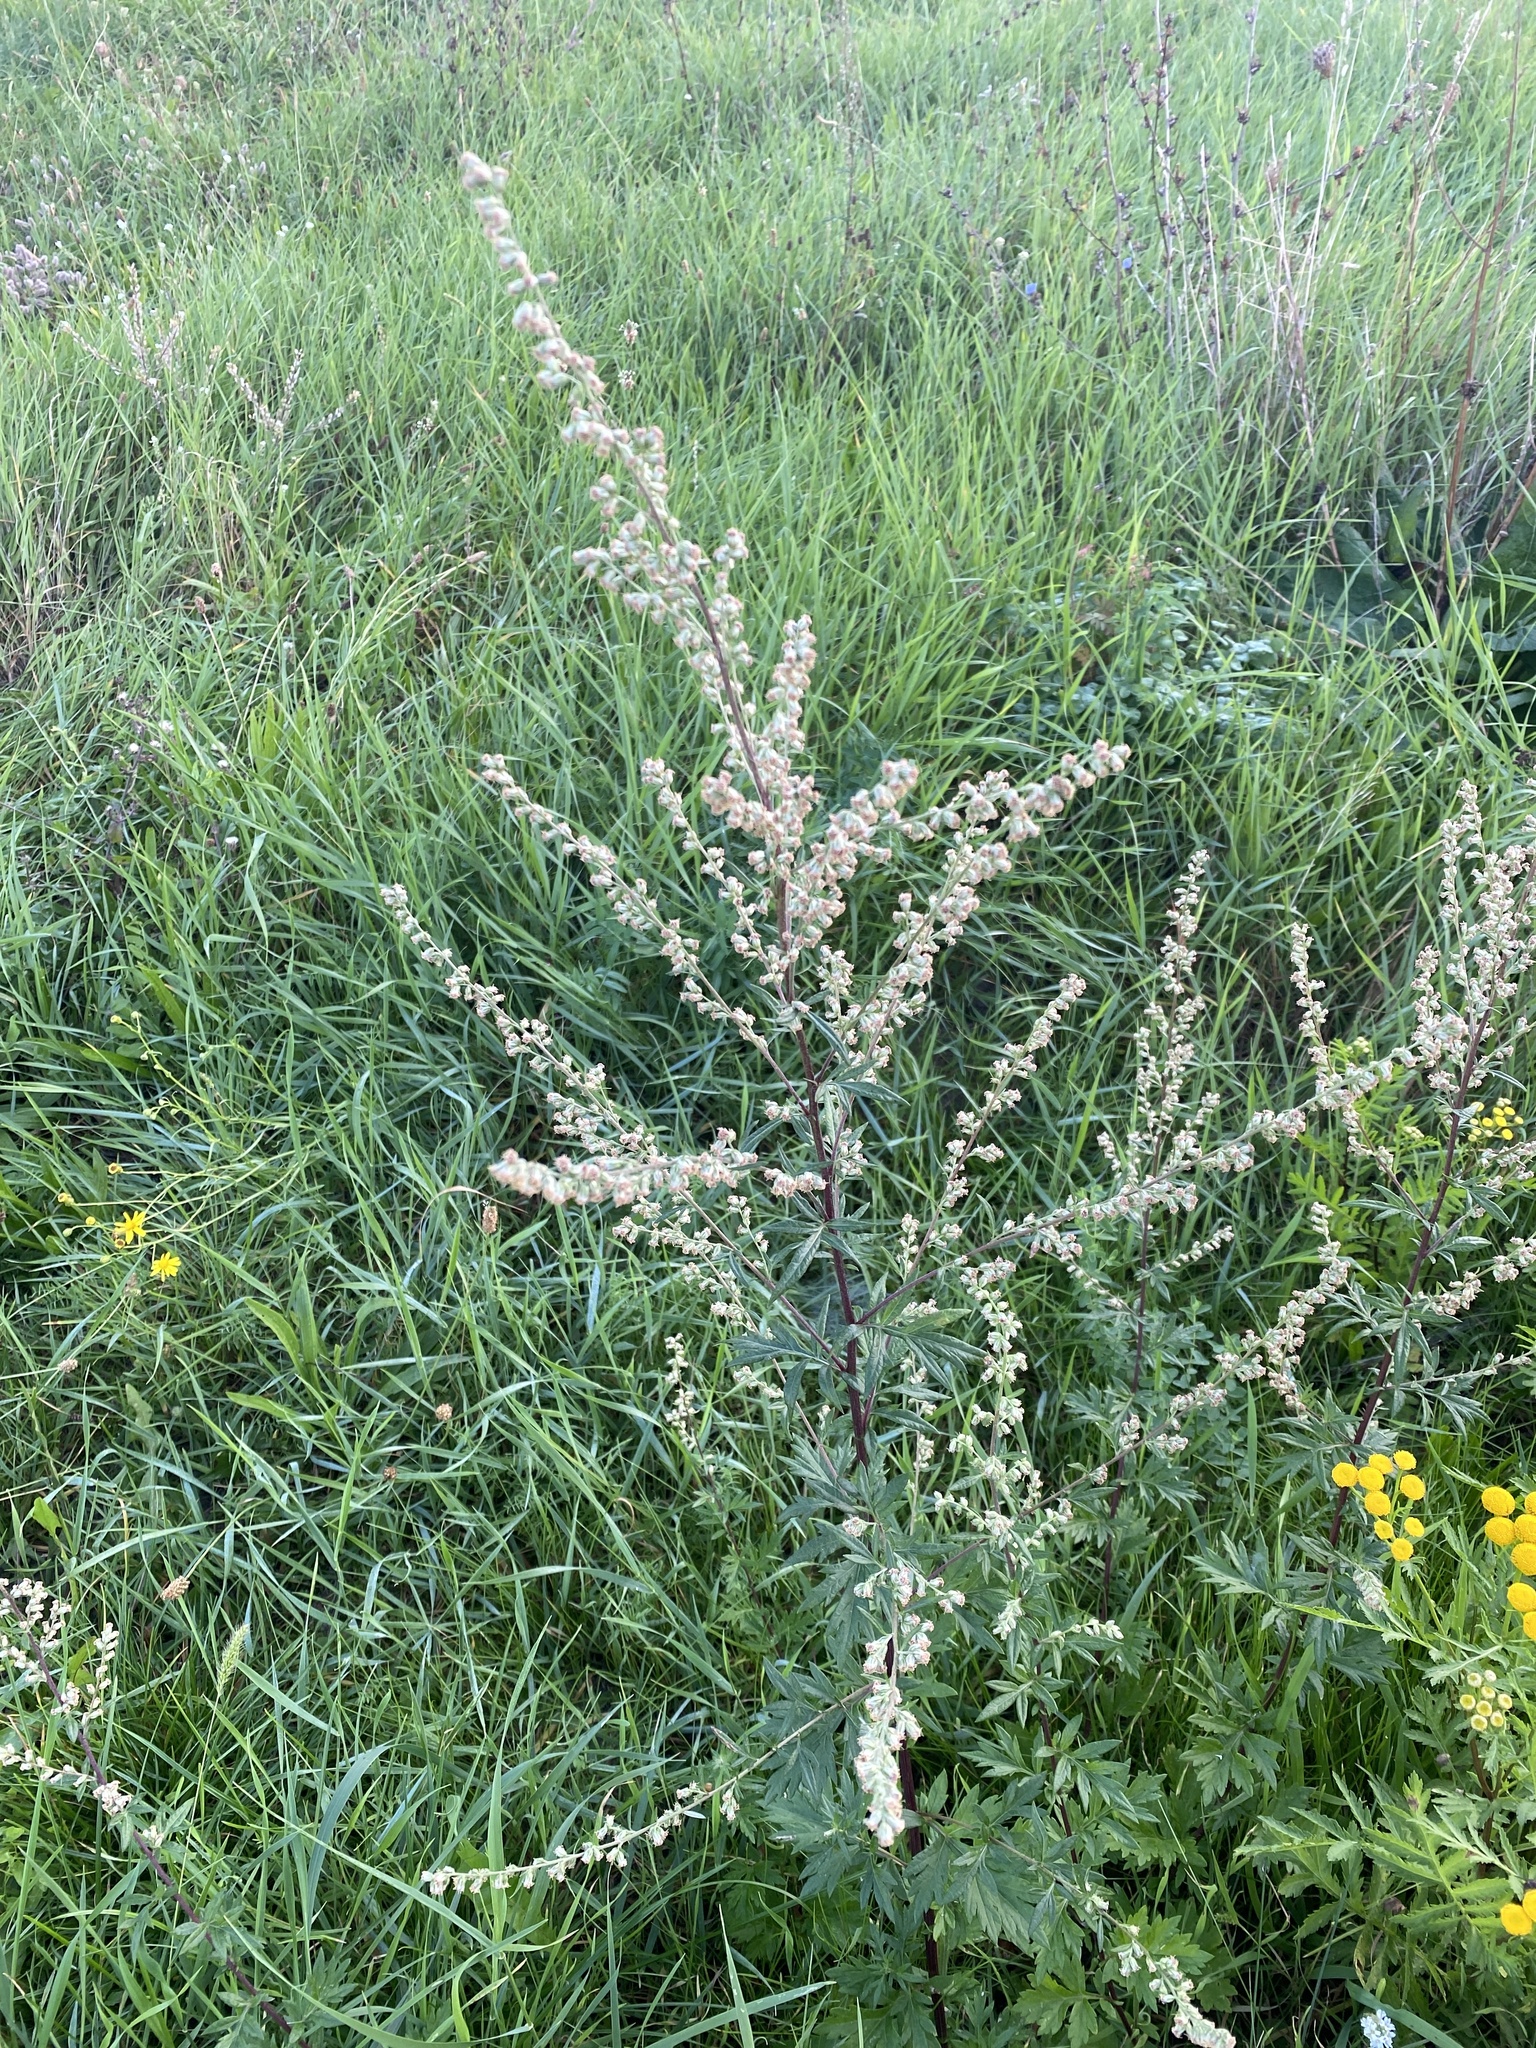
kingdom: Plantae
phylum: Tracheophyta
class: Magnoliopsida
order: Asterales
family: Asteraceae
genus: Artemisia
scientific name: Artemisia vulgaris
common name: Mugwort
